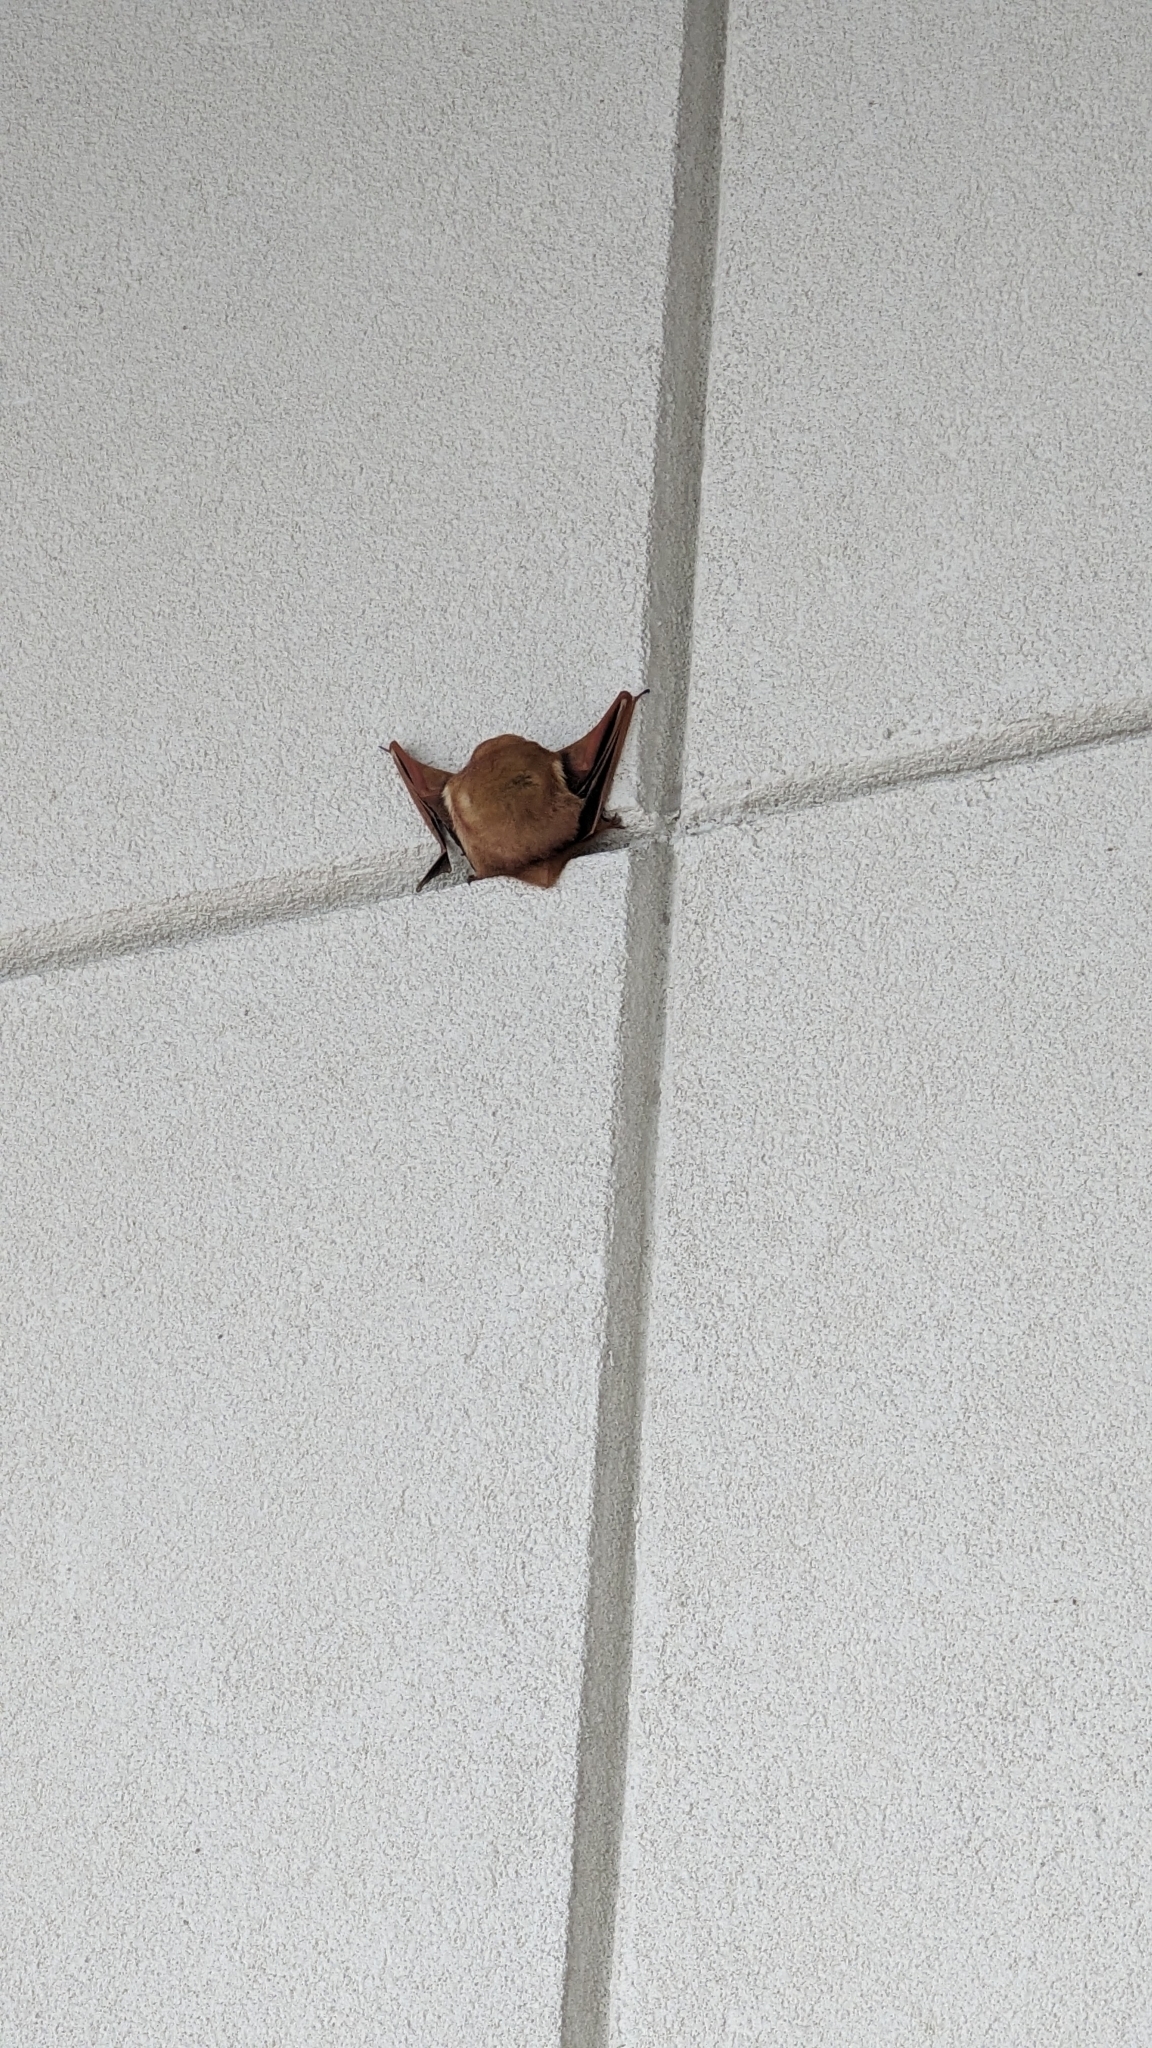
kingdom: Animalia
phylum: Chordata
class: Mammalia
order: Chiroptera
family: Vespertilionidae
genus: Lasiurus
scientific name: Lasiurus borealis
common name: Eastern red bat
